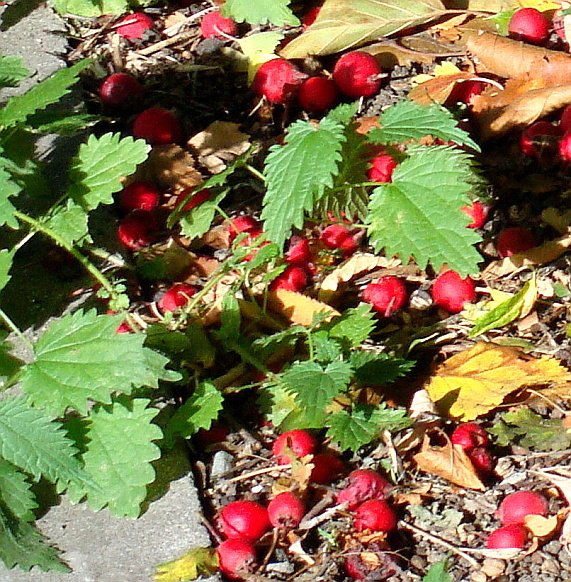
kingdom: Plantae
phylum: Tracheophyta
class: Magnoliopsida
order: Rosales
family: Urticaceae
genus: Urtica
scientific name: Urtica dioica
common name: Common nettle
